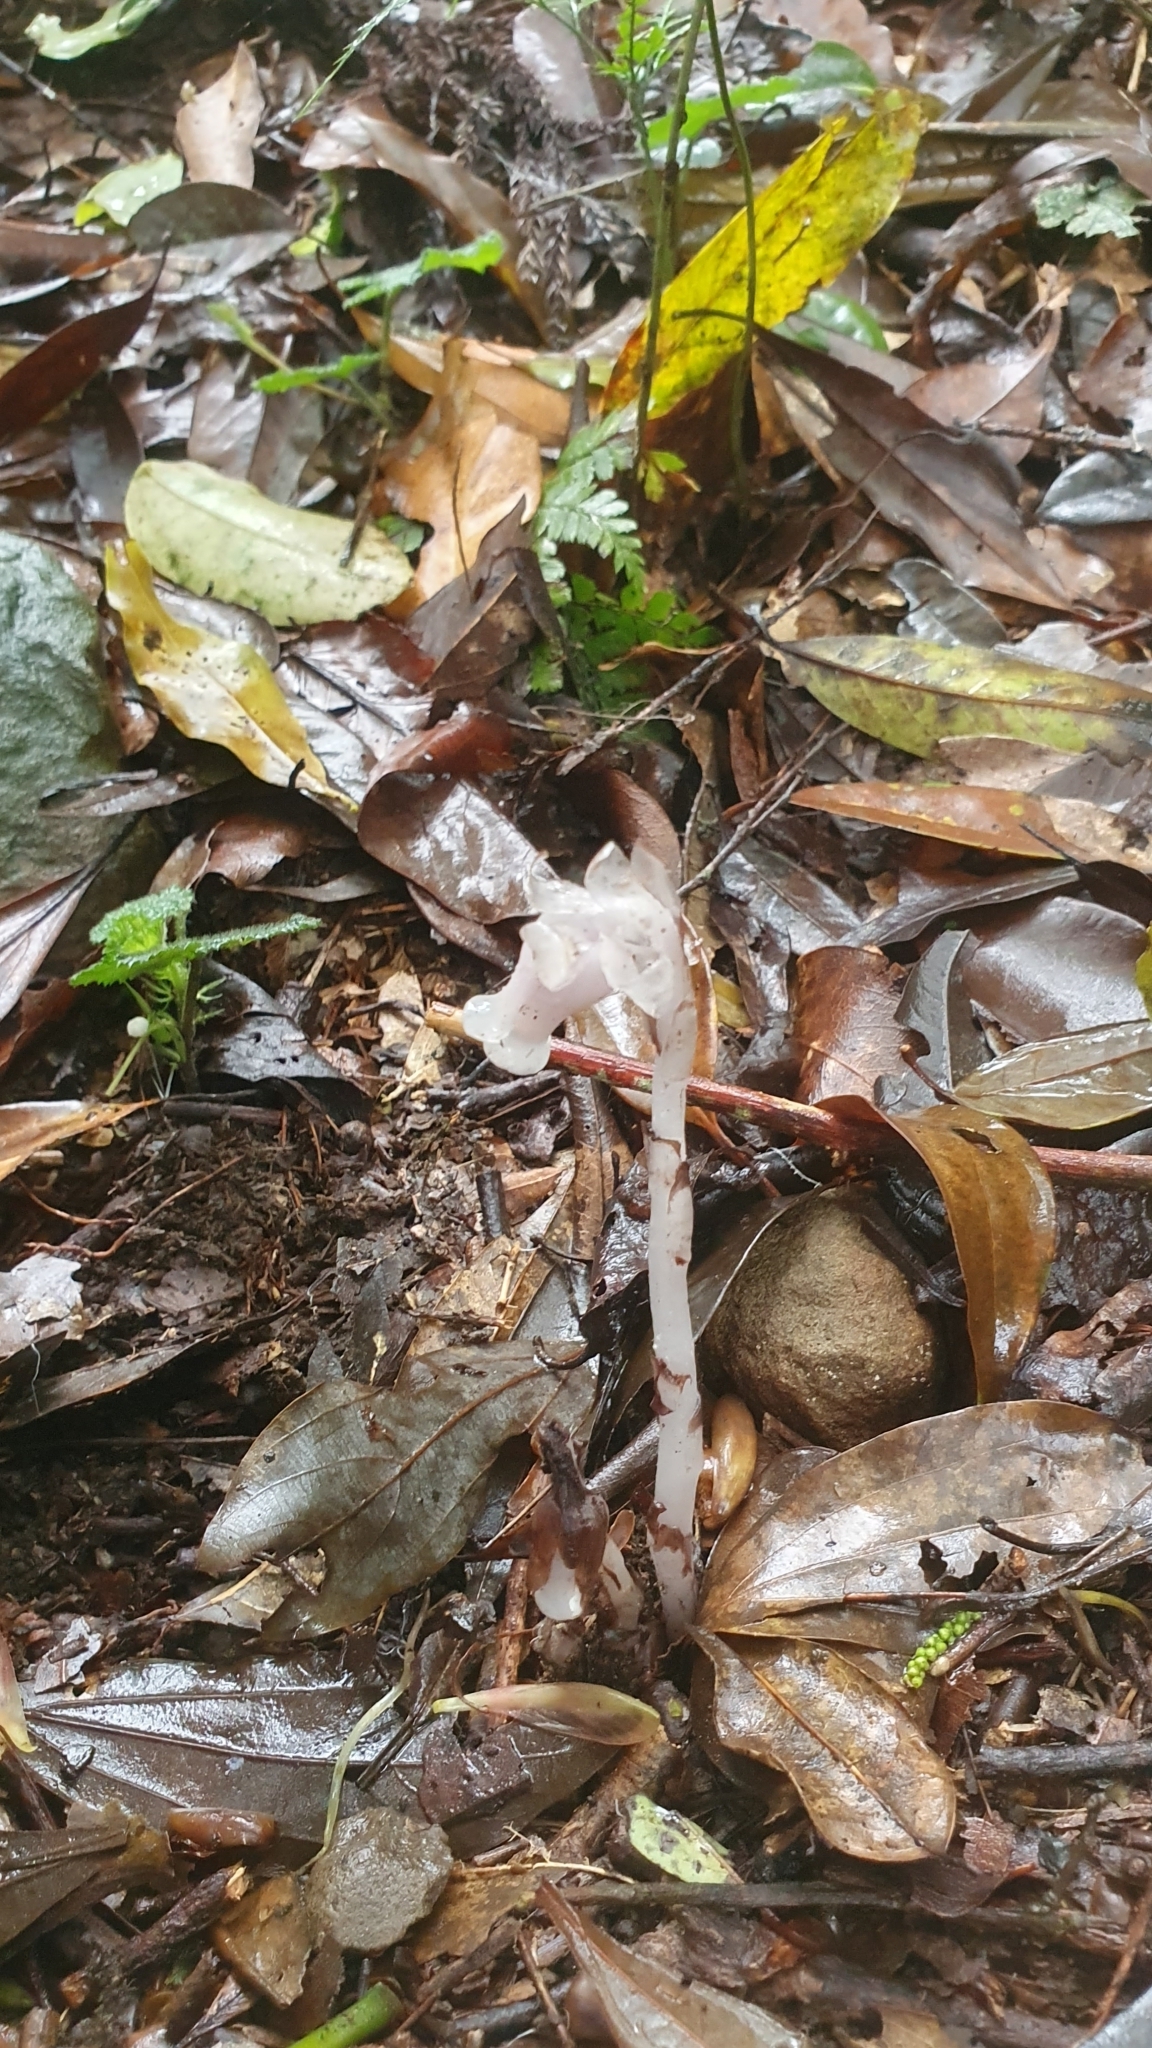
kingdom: Plantae
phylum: Tracheophyta
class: Magnoliopsida
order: Ericales
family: Ericaceae
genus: Monotropastrum
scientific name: Monotropastrum humile
